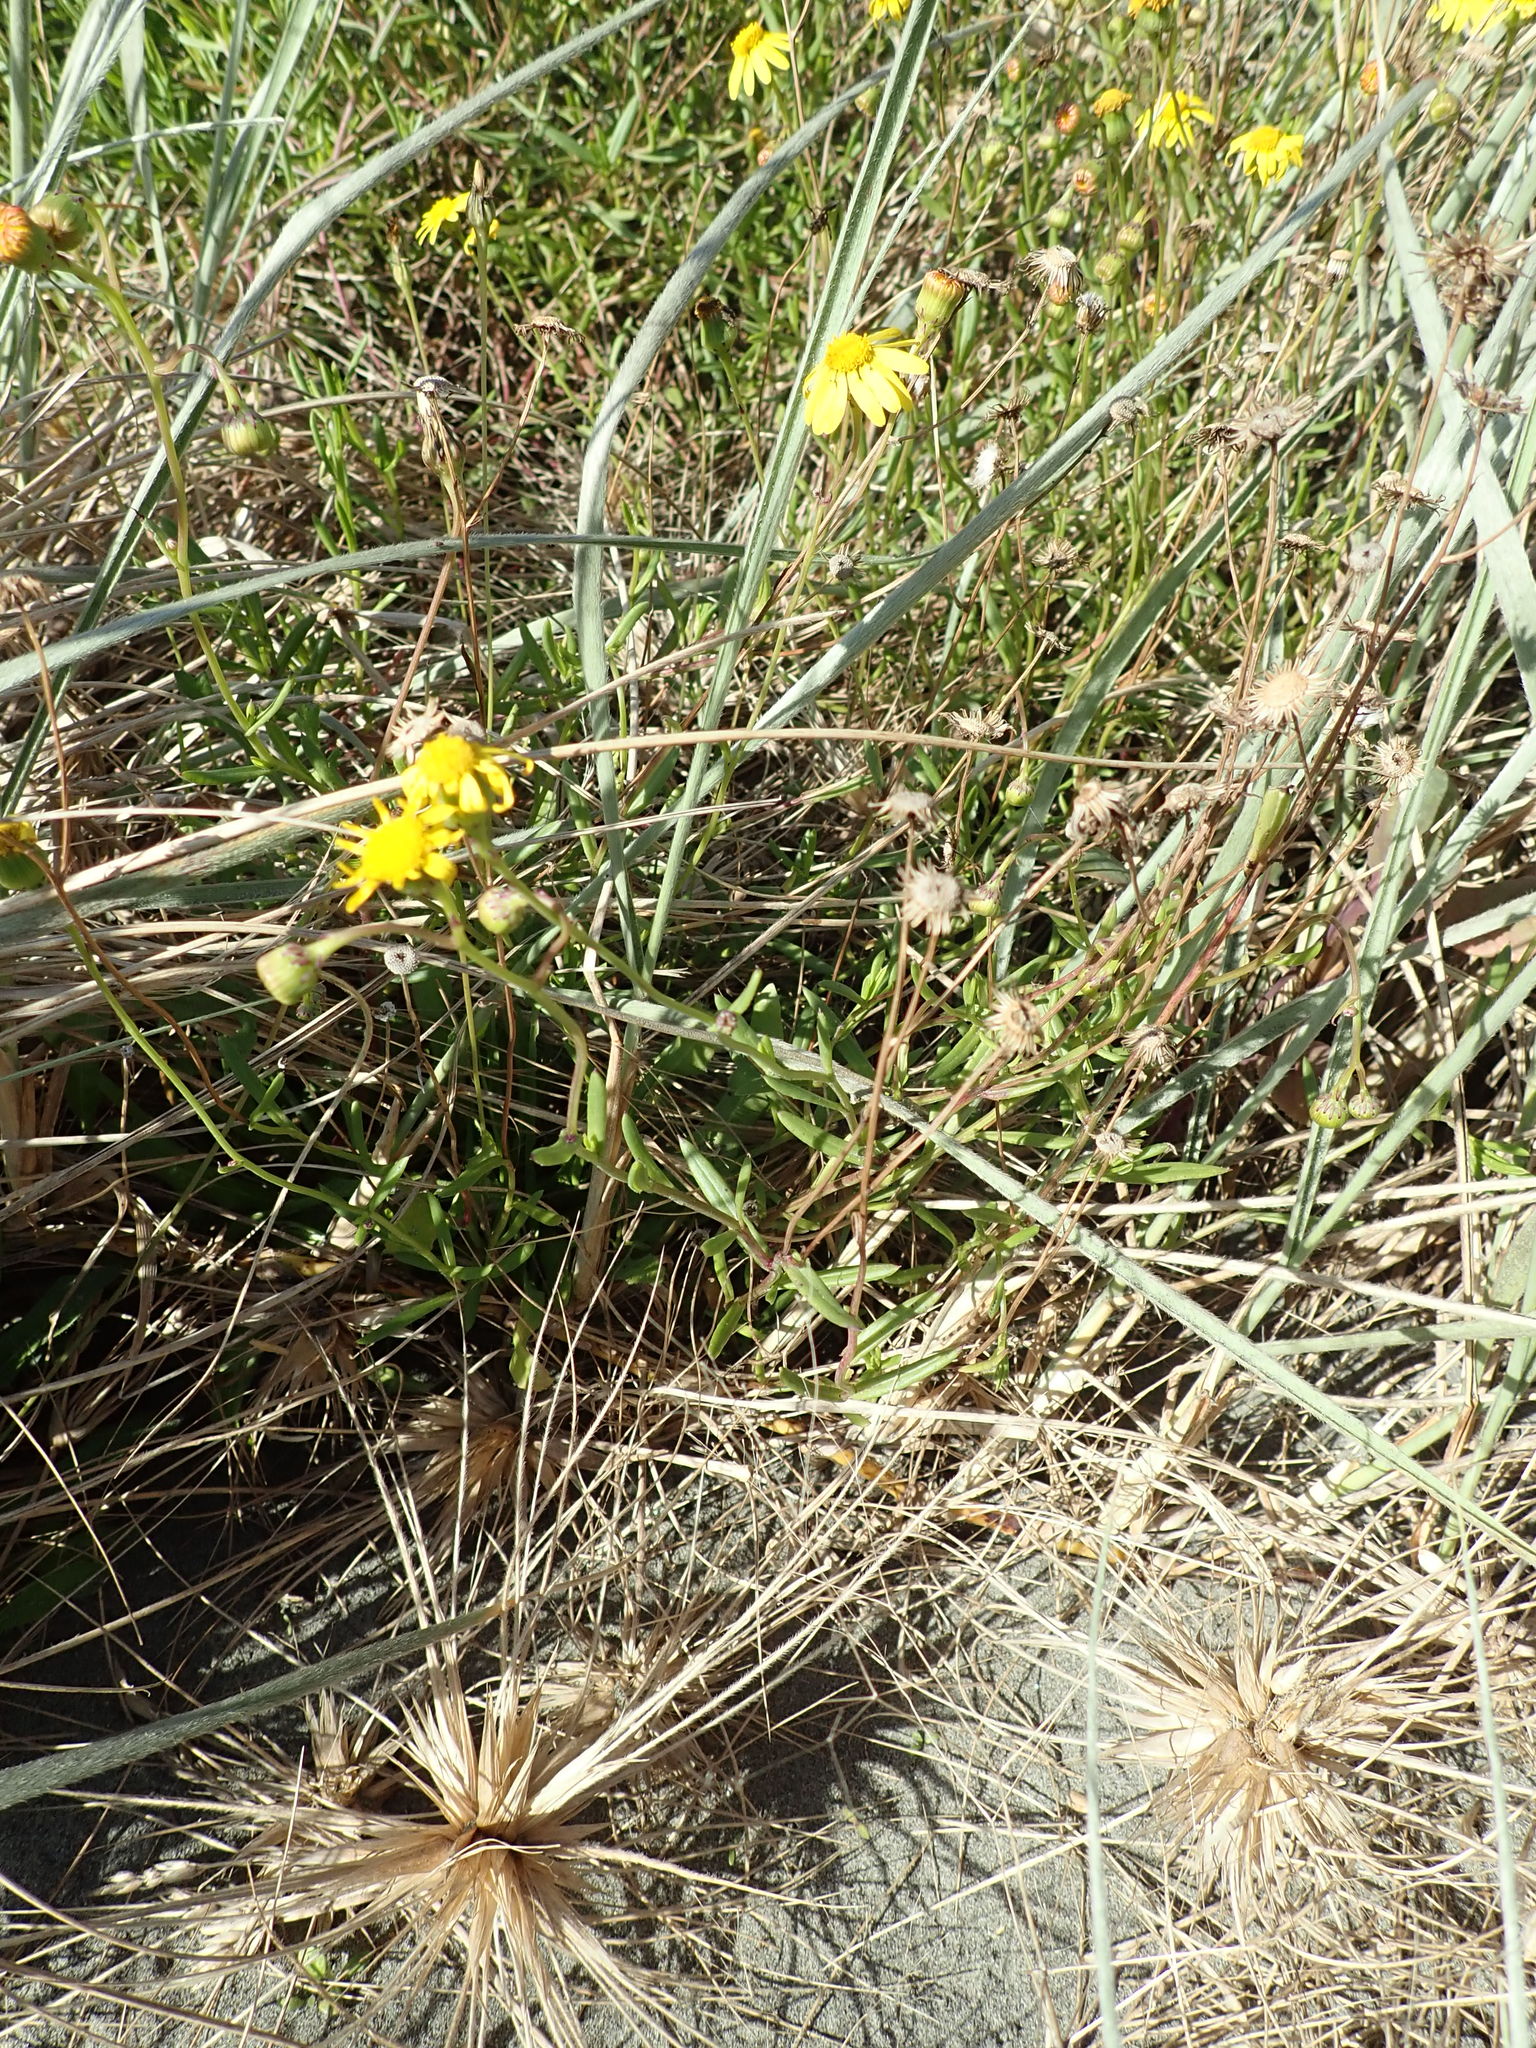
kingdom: Plantae
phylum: Tracheophyta
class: Magnoliopsida
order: Asterales
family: Asteraceae
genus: Senecio
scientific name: Senecio skirrhodon
